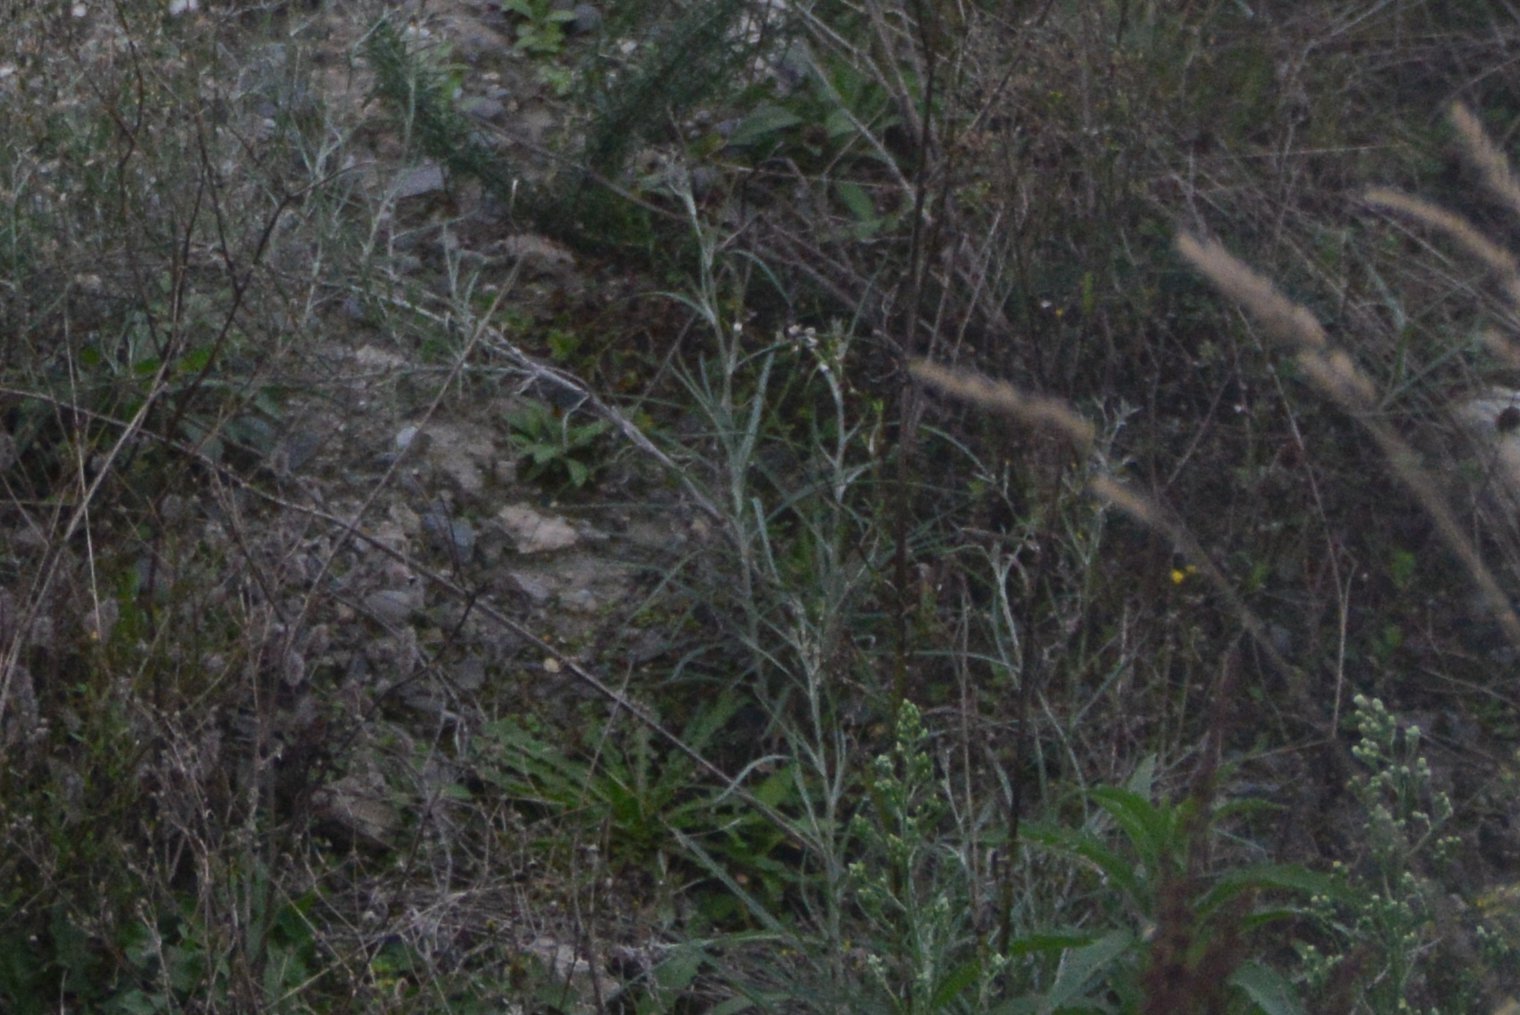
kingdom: Plantae
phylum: Tracheophyta
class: Magnoliopsida
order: Asterales
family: Asteraceae
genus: Senecio
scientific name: Senecio quadridentatus
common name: Cotton fireweed
